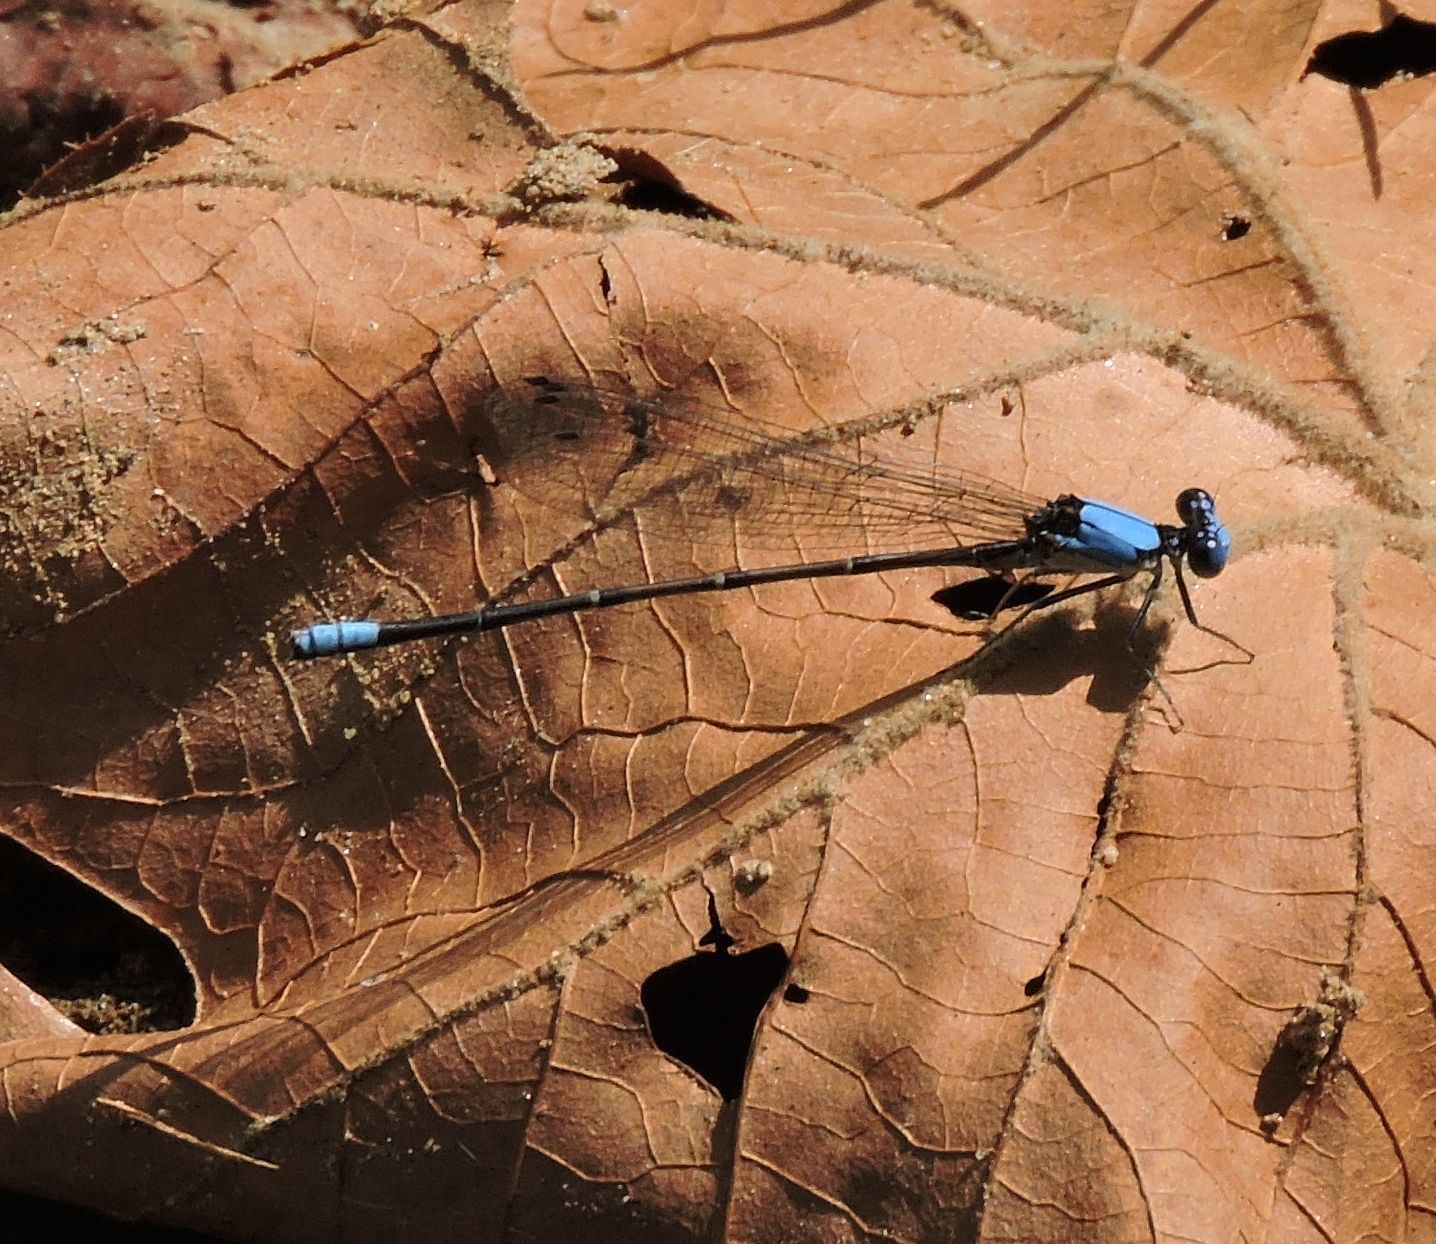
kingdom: Animalia
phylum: Arthropoda
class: Insecta
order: Odonata
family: Coenagrionidae
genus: Argia
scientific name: Argia apicalis
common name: Blue-fronted dancer
